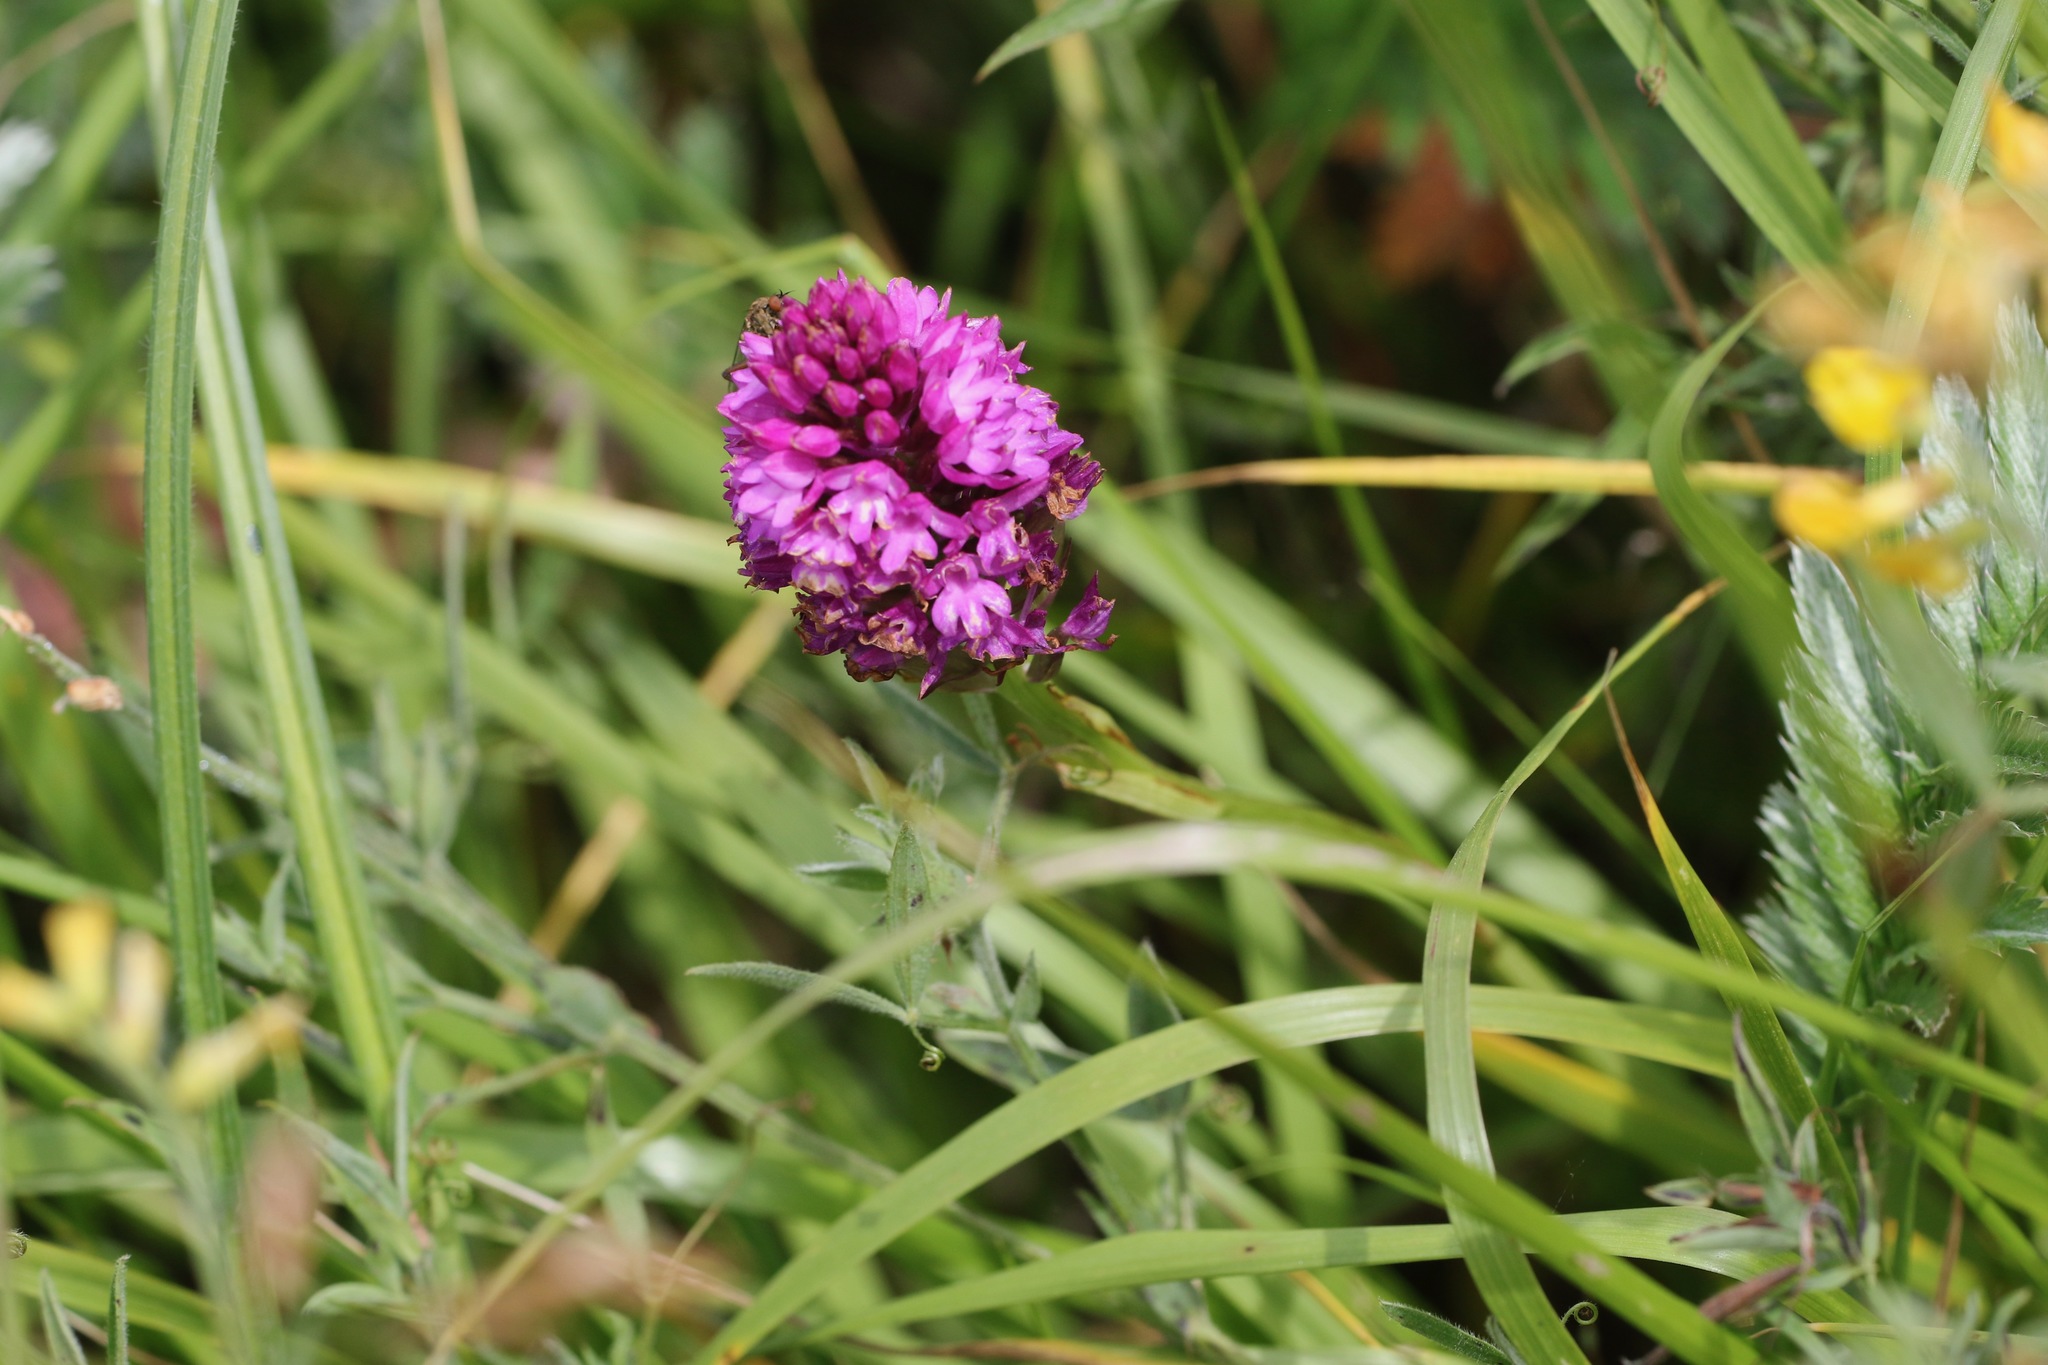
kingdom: Plantae
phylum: Tracheophyta
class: Liliopsida
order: Asparagales
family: Orchidaceae
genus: Anacamptis
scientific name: Anacamptis pyramidalis
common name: Pyramidal orchid
